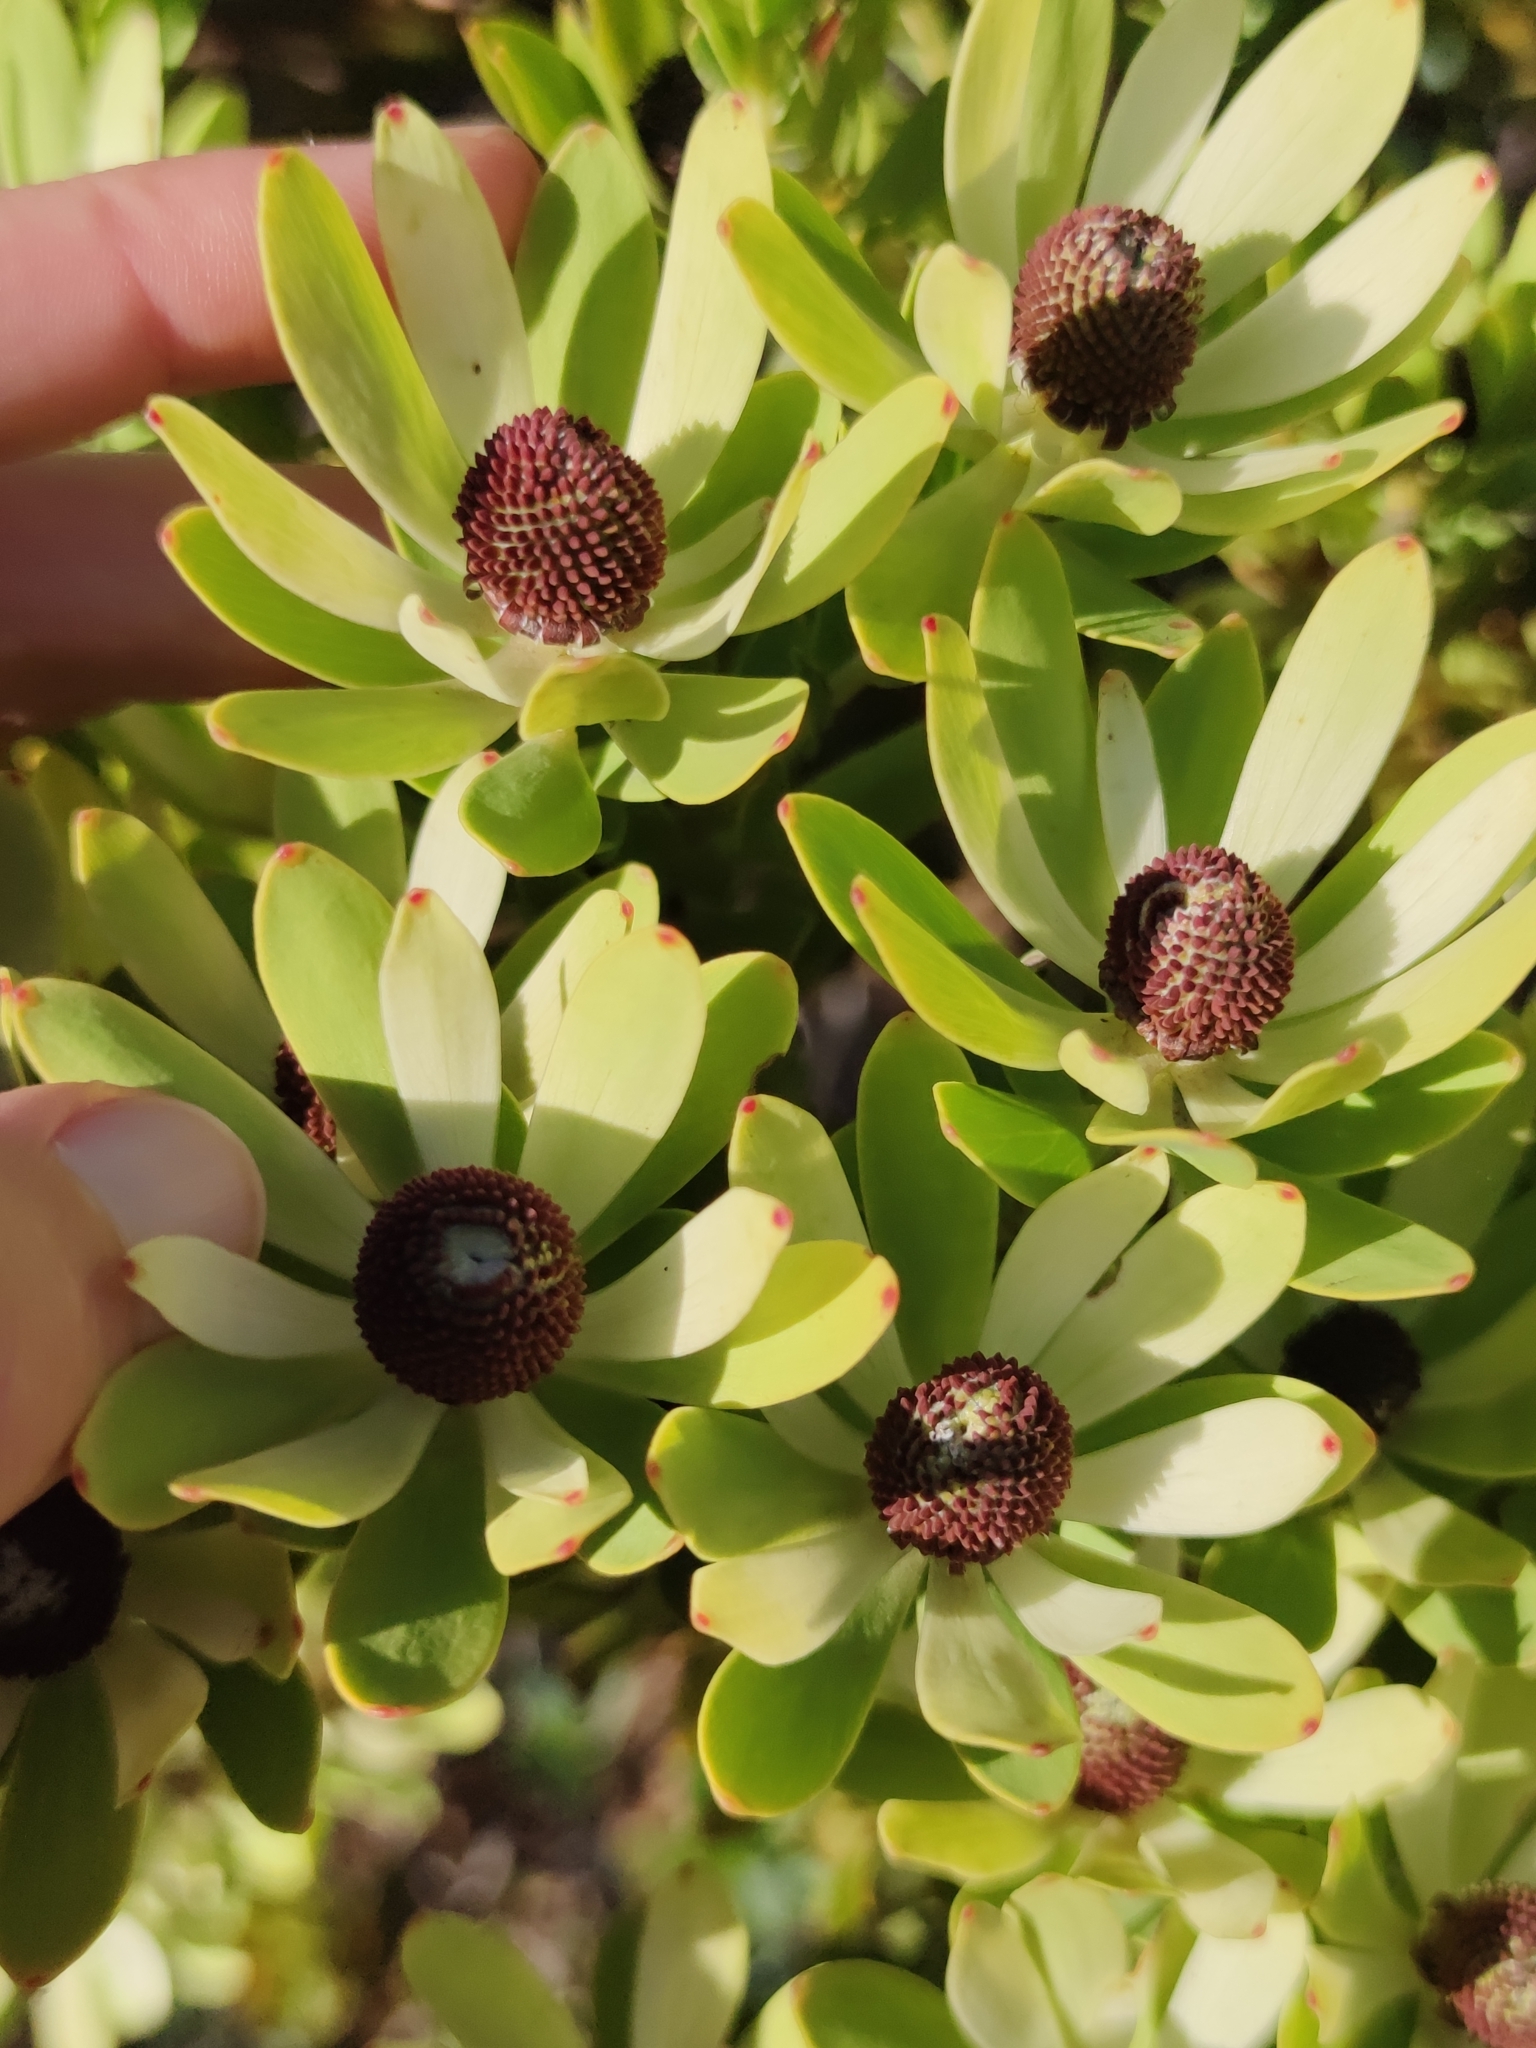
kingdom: Plantae
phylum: Tracheophyta
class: Magnoliopsida
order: Proteales
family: Proteaceae
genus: Leucadendron
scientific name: Leucadendron procerum
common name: Ivory conebush
